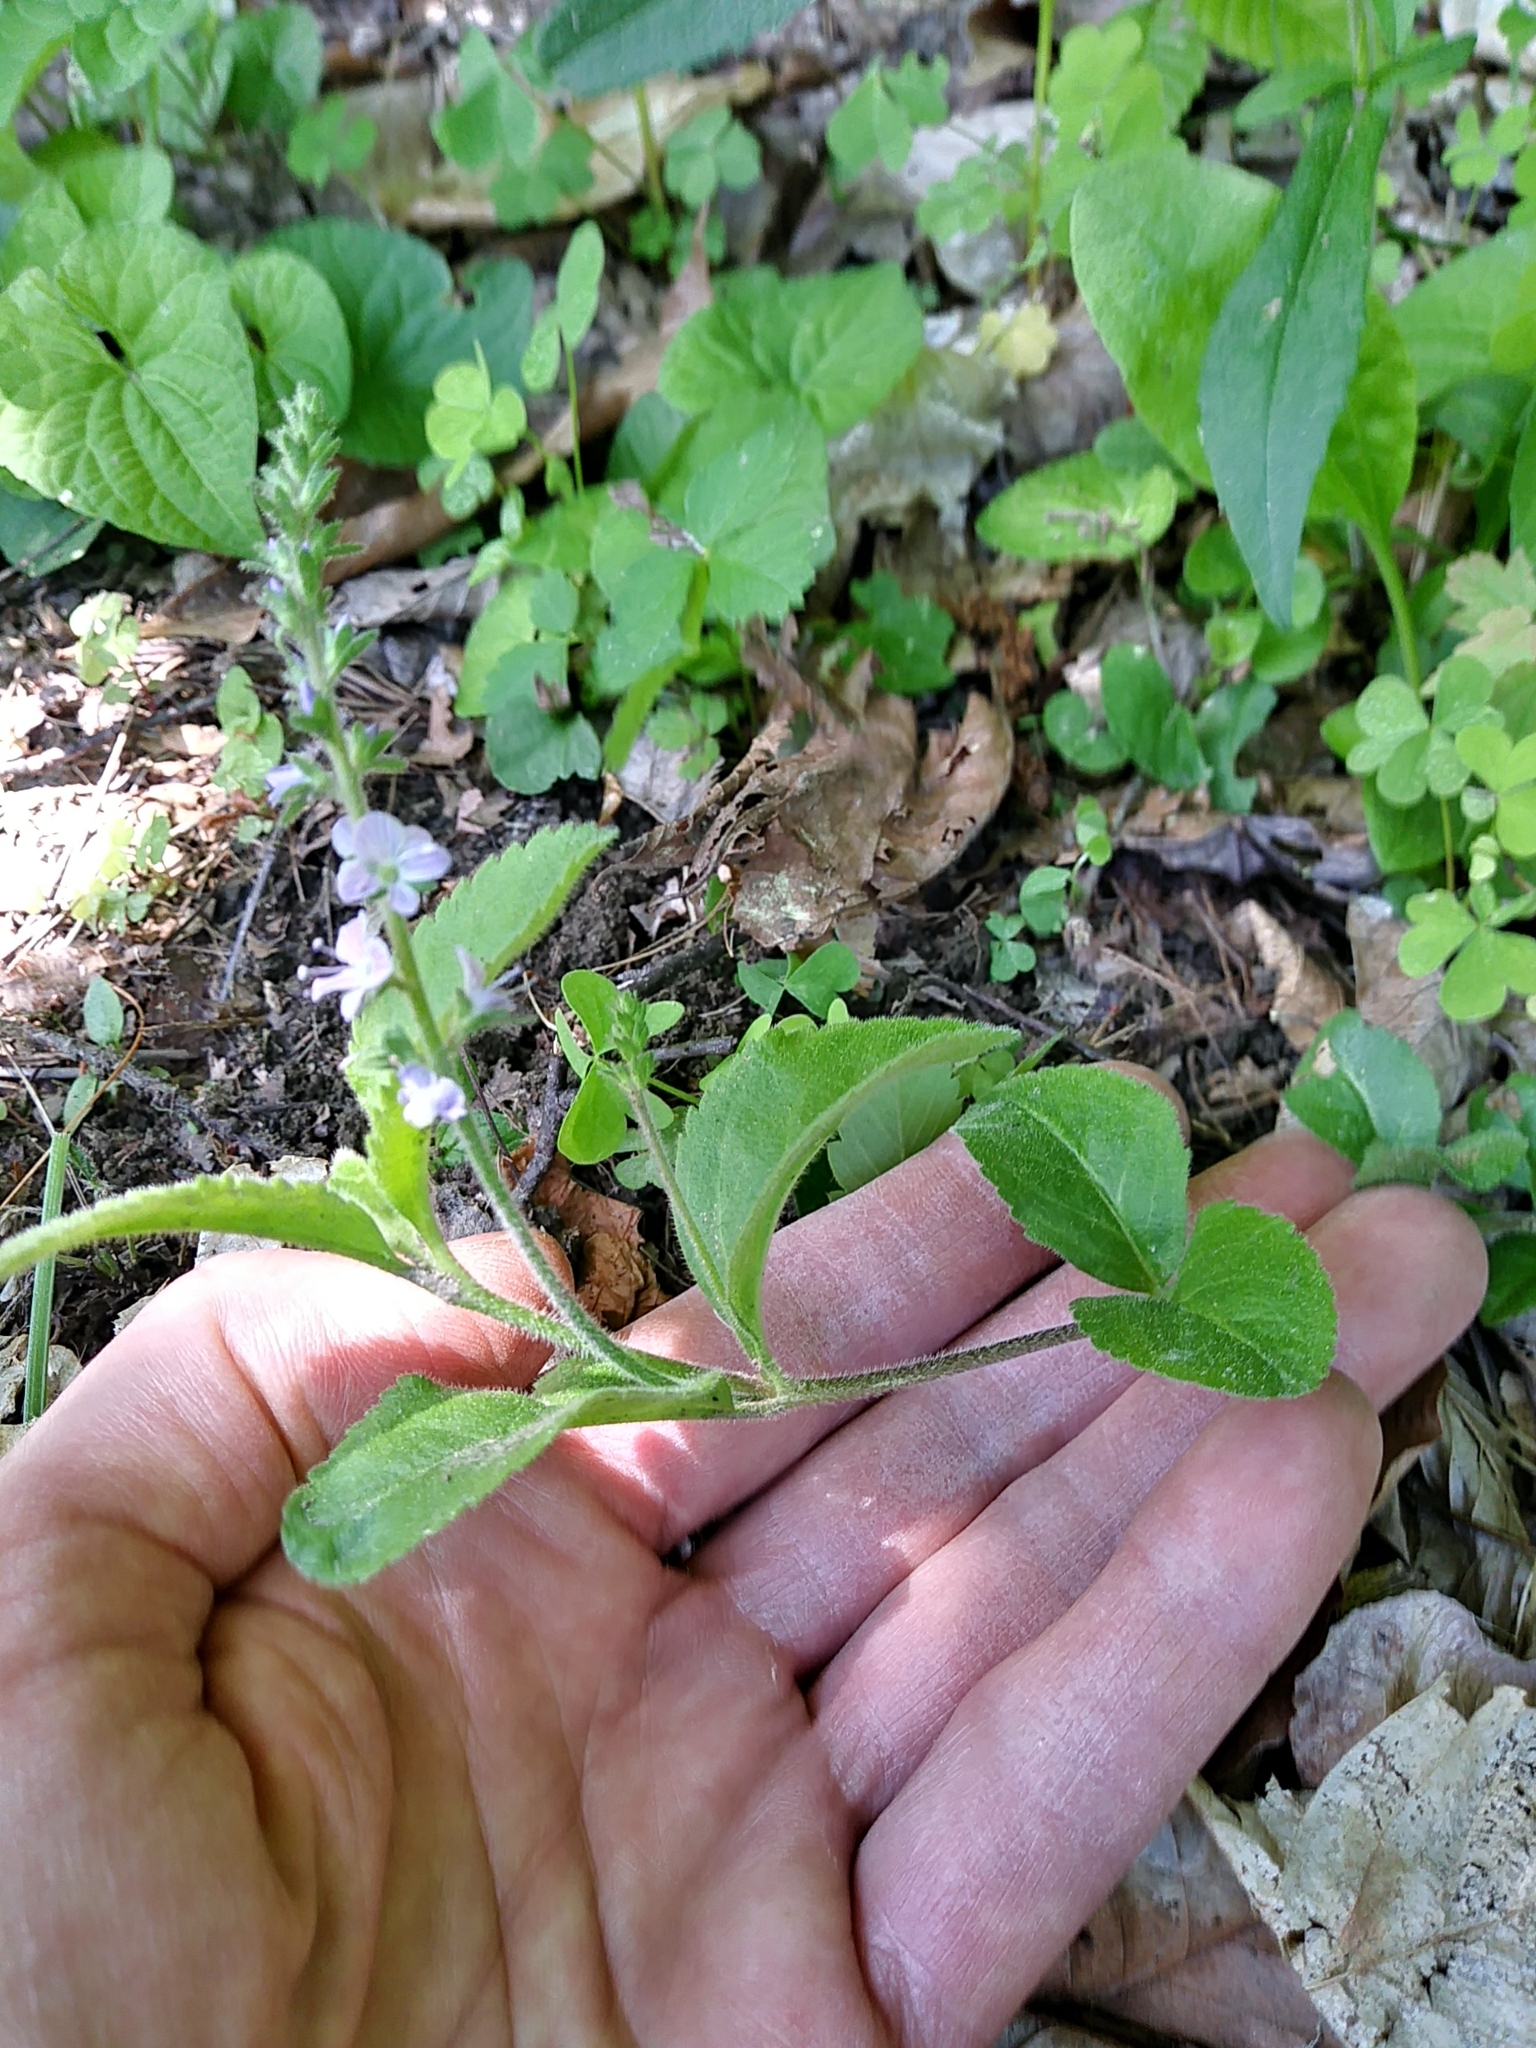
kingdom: Plantae
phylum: Tracheophyta
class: Magnoliopsida
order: Lamiales
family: Plantaginaceae
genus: Veronica
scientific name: Veronica officinalis
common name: Common speedwell
